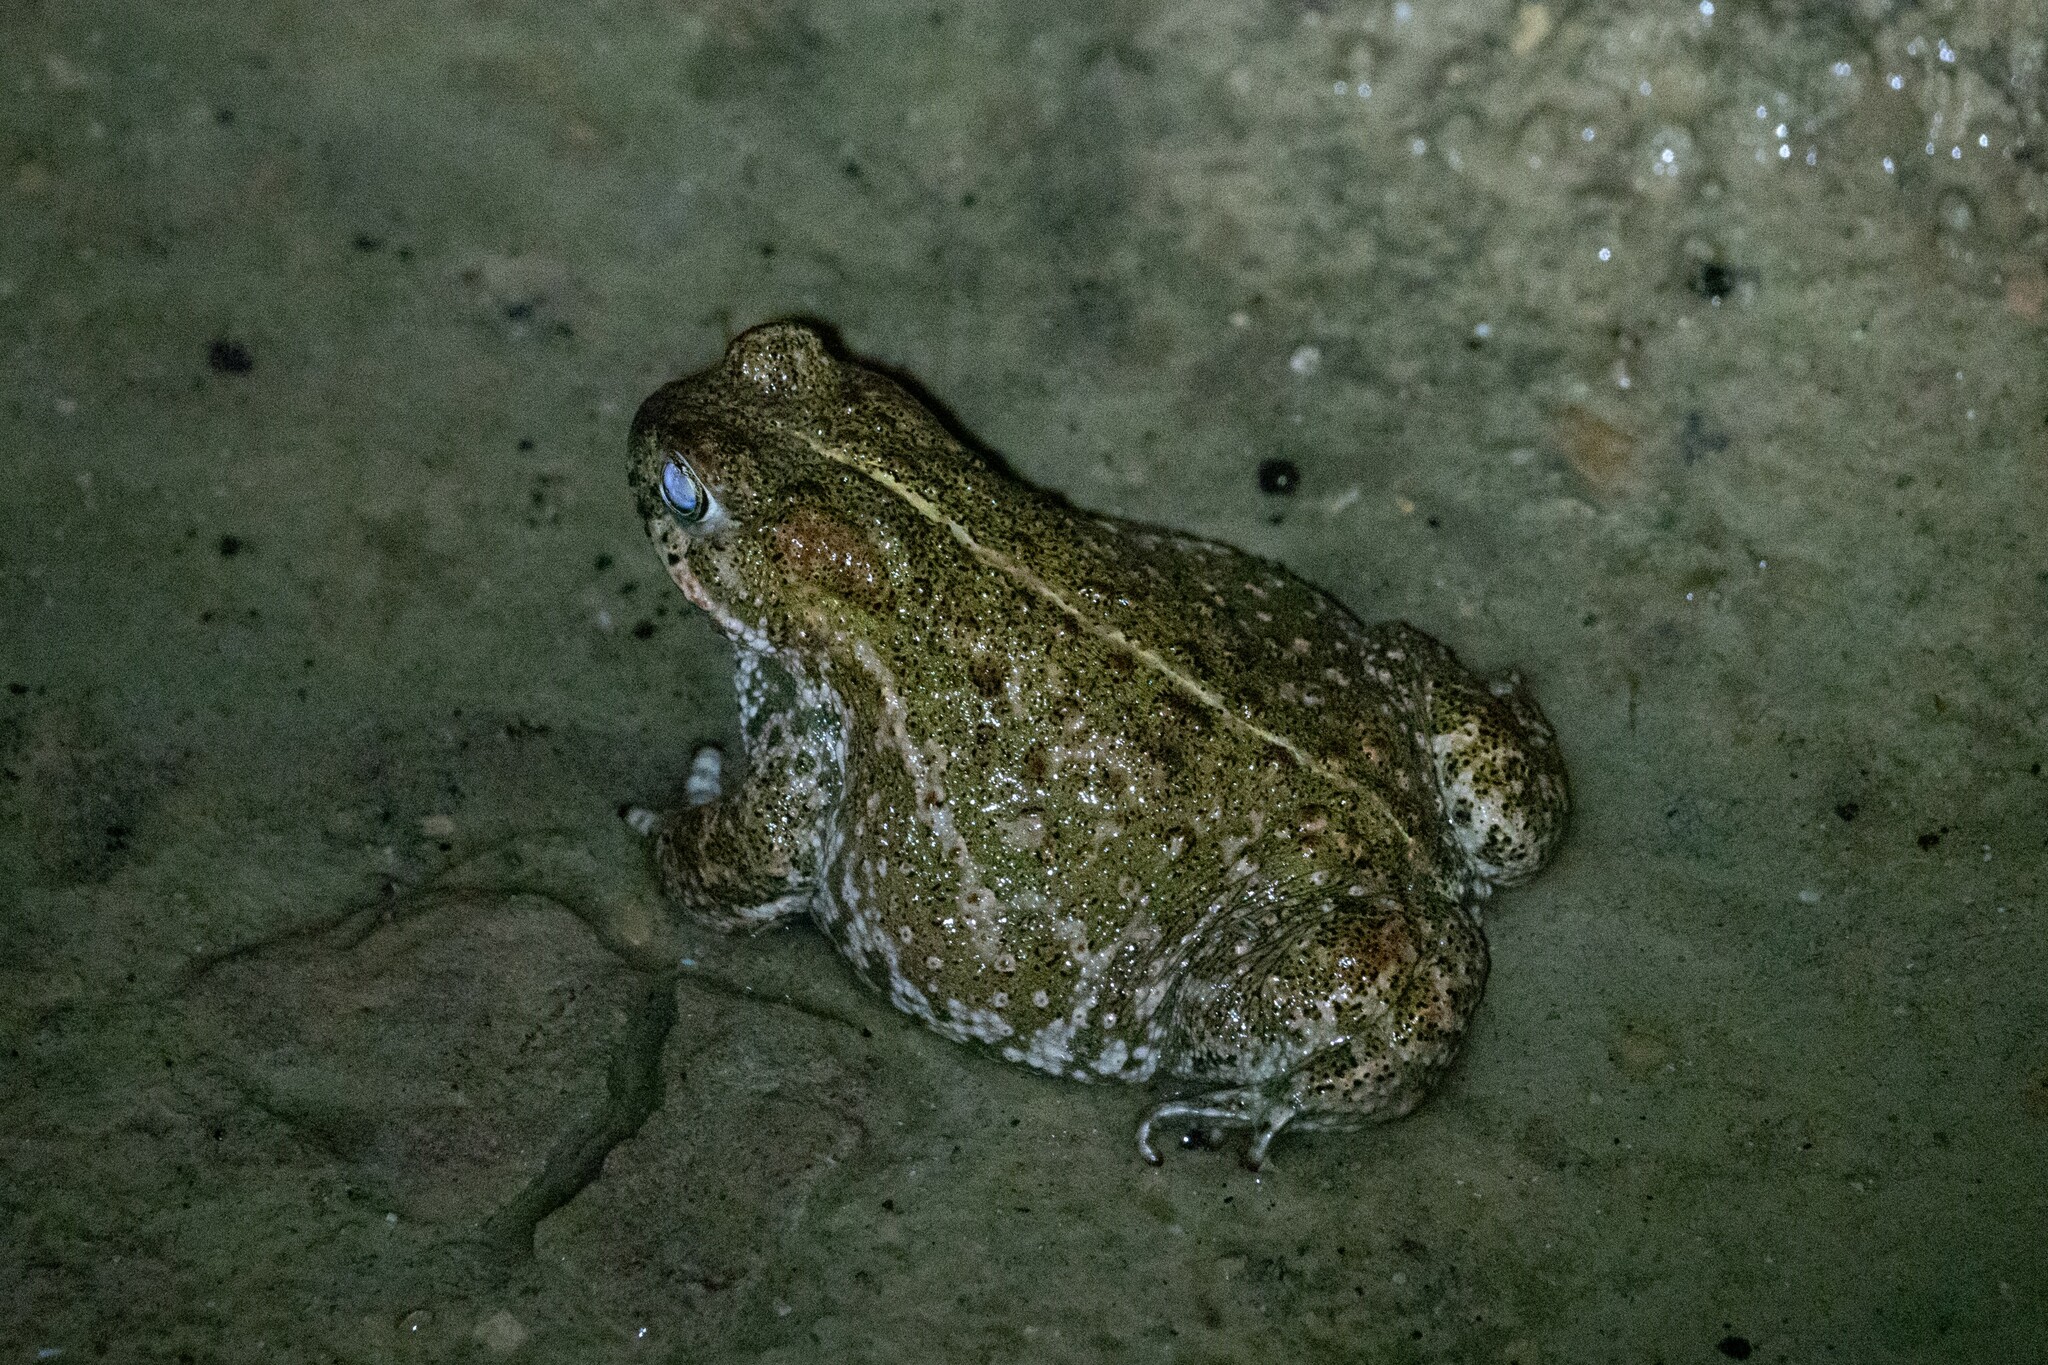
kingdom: Animalia
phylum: Chordata
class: Amphibia
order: Anura
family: Bufonidae
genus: Epidalea
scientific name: Epidalea calamita
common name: Natterjack toad
